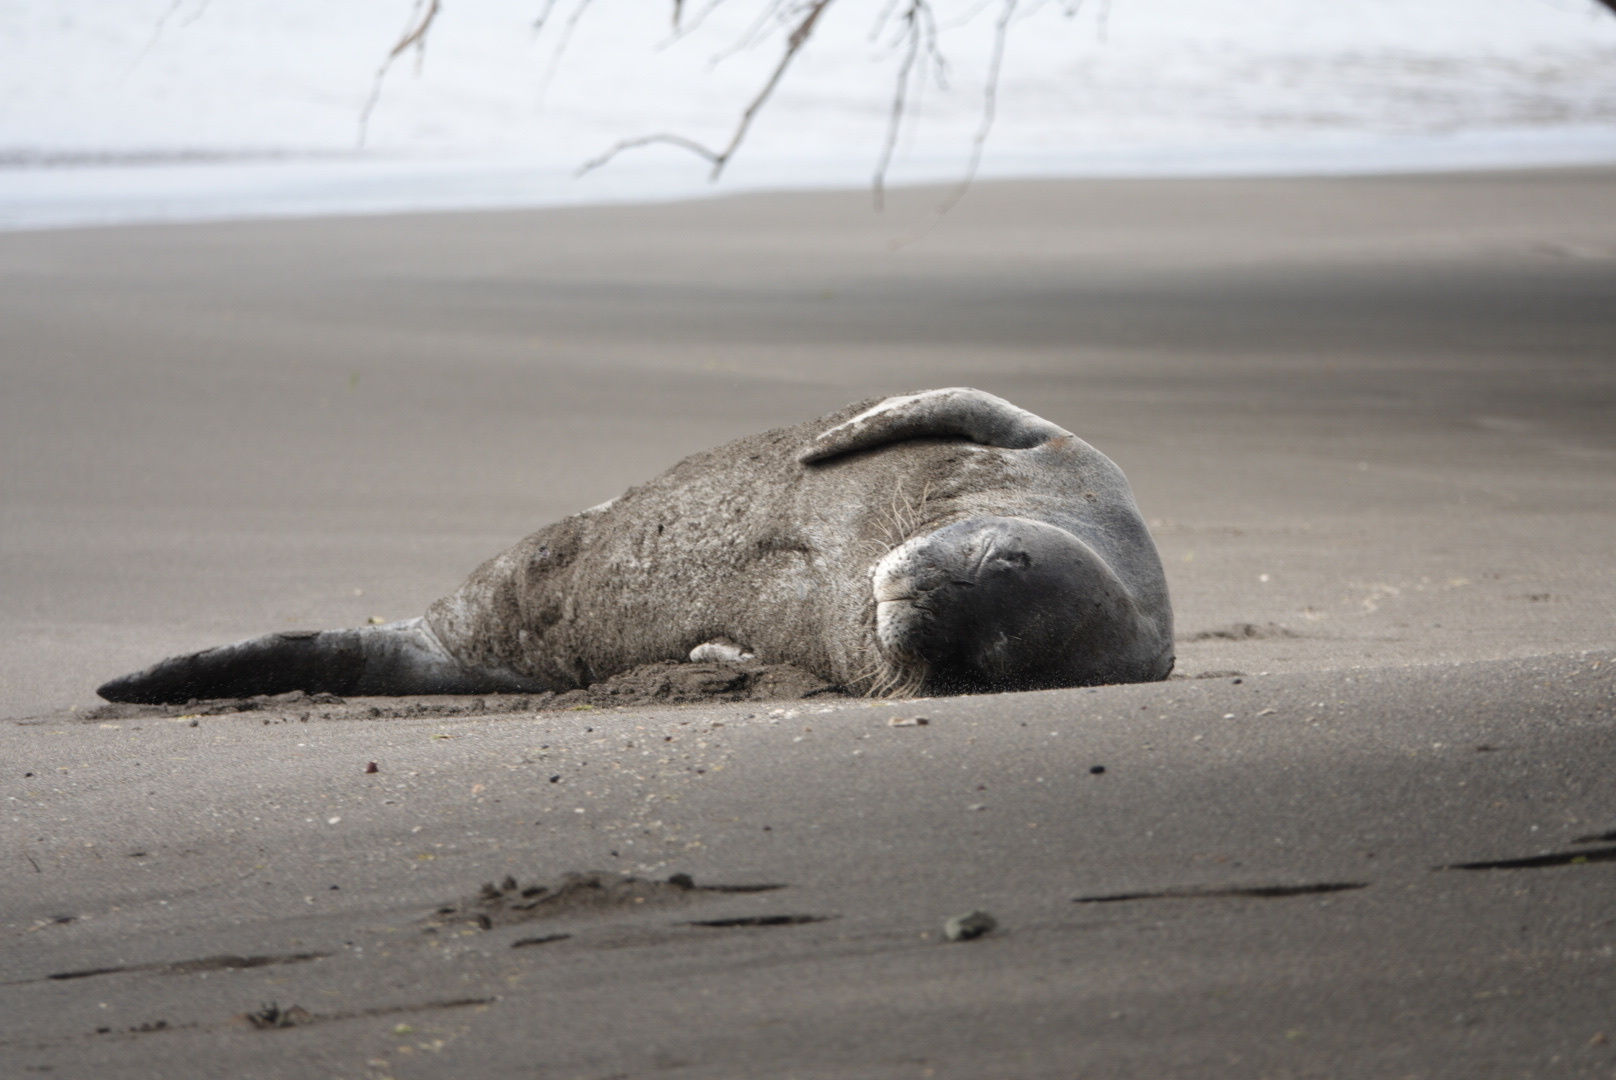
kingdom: Animalia
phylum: Chordata
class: Mammalia
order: Carnivora
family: Phocidae
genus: Neomonachus
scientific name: Neomonachus schauinslandi
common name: Hawaiian monk seal
